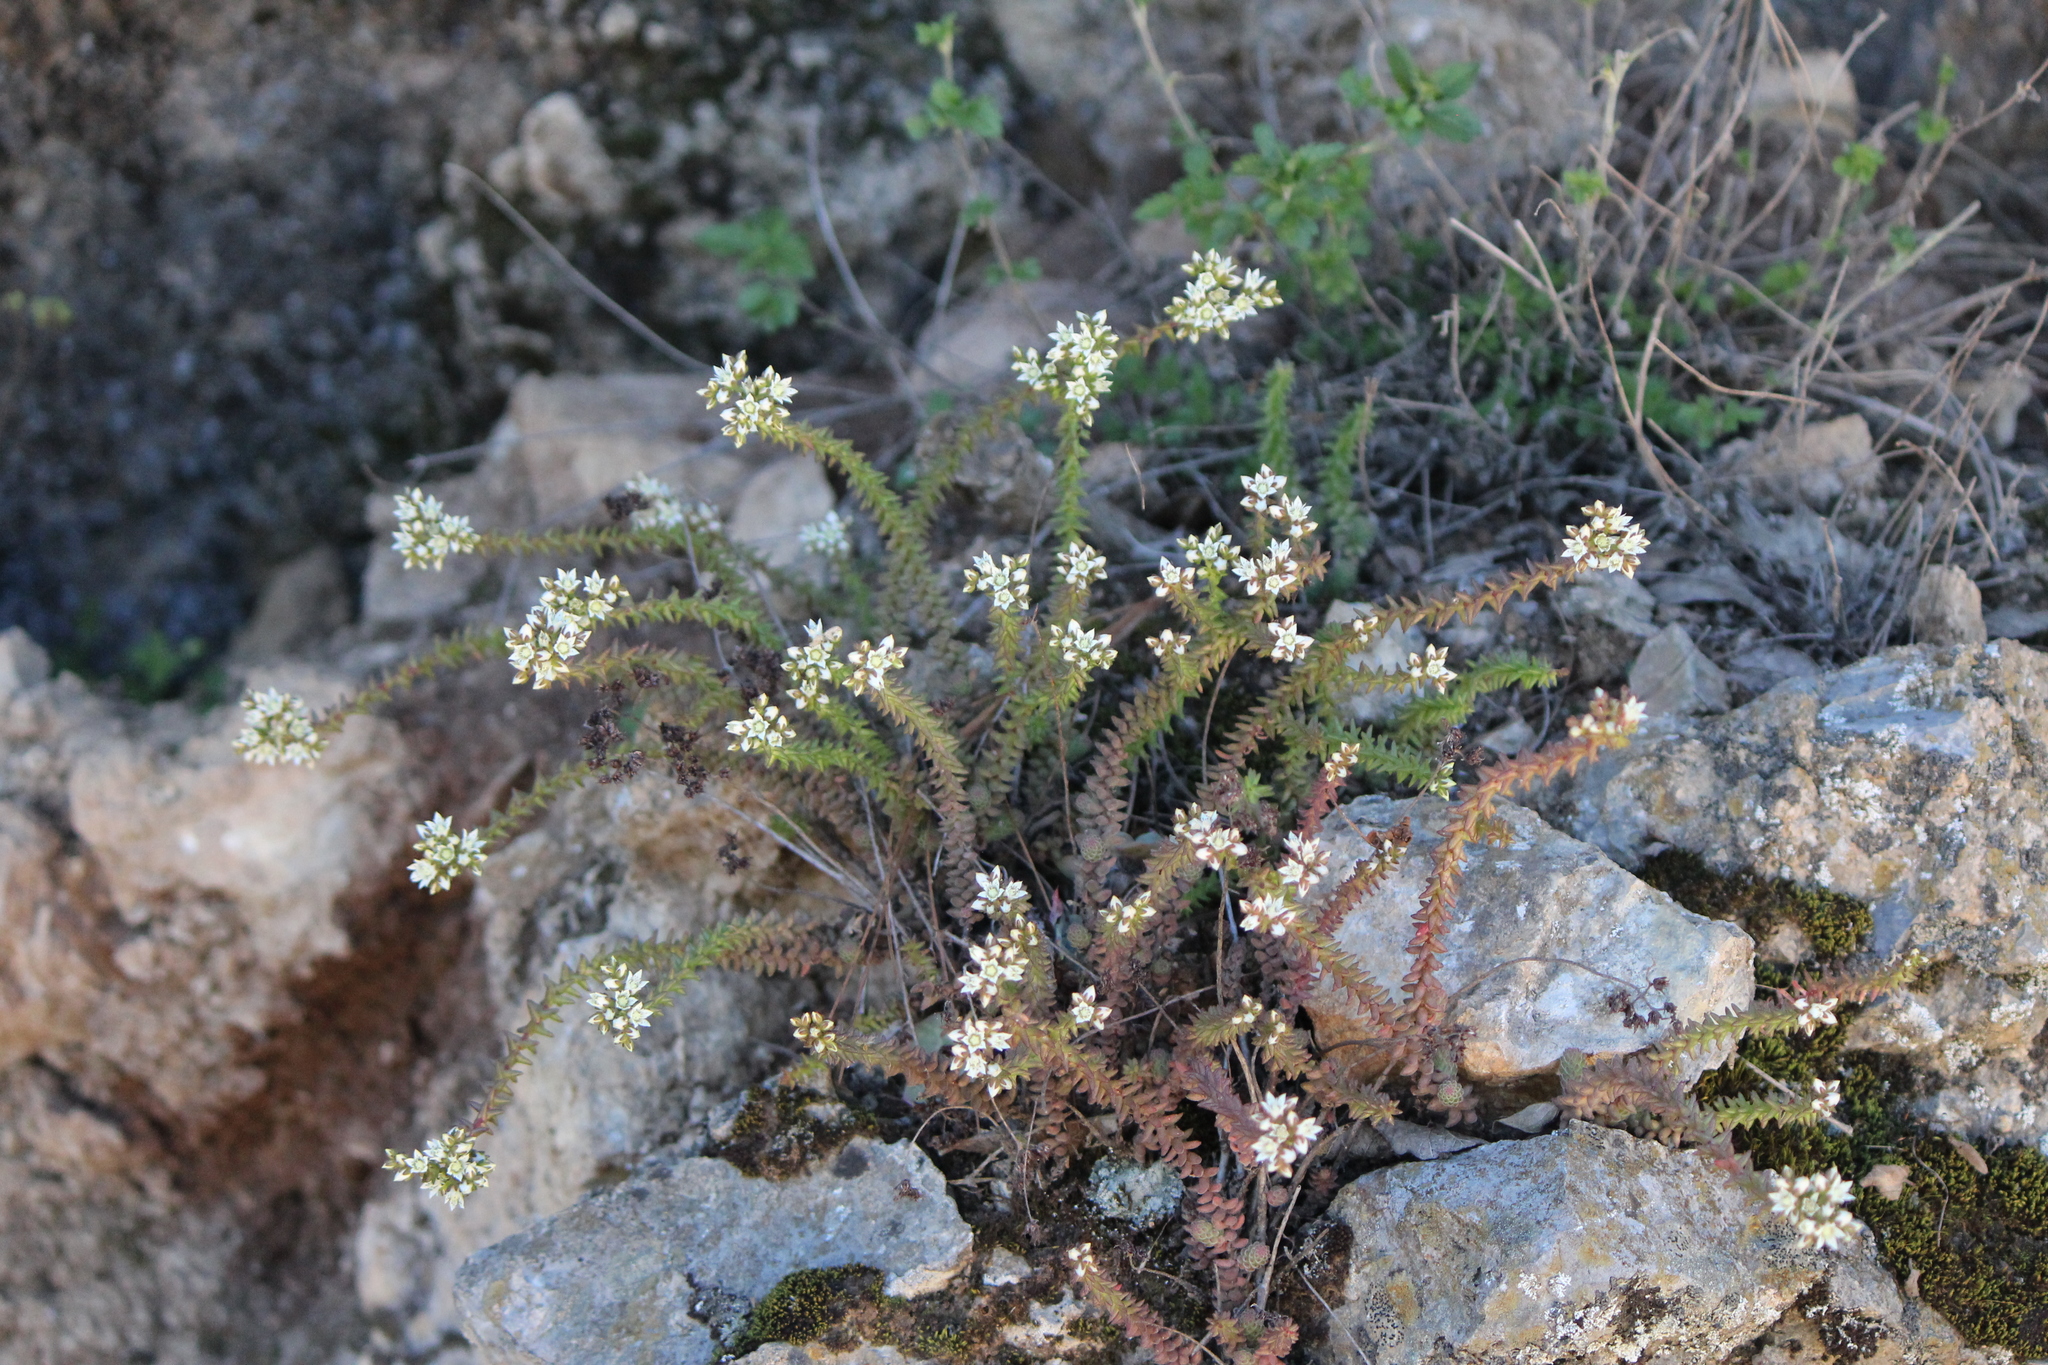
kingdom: Plantae
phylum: Tracheophyta
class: Magnoliopsida
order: Saxifragales
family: Crassulaceae
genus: Sedum
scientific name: Sedum jurgensenii
